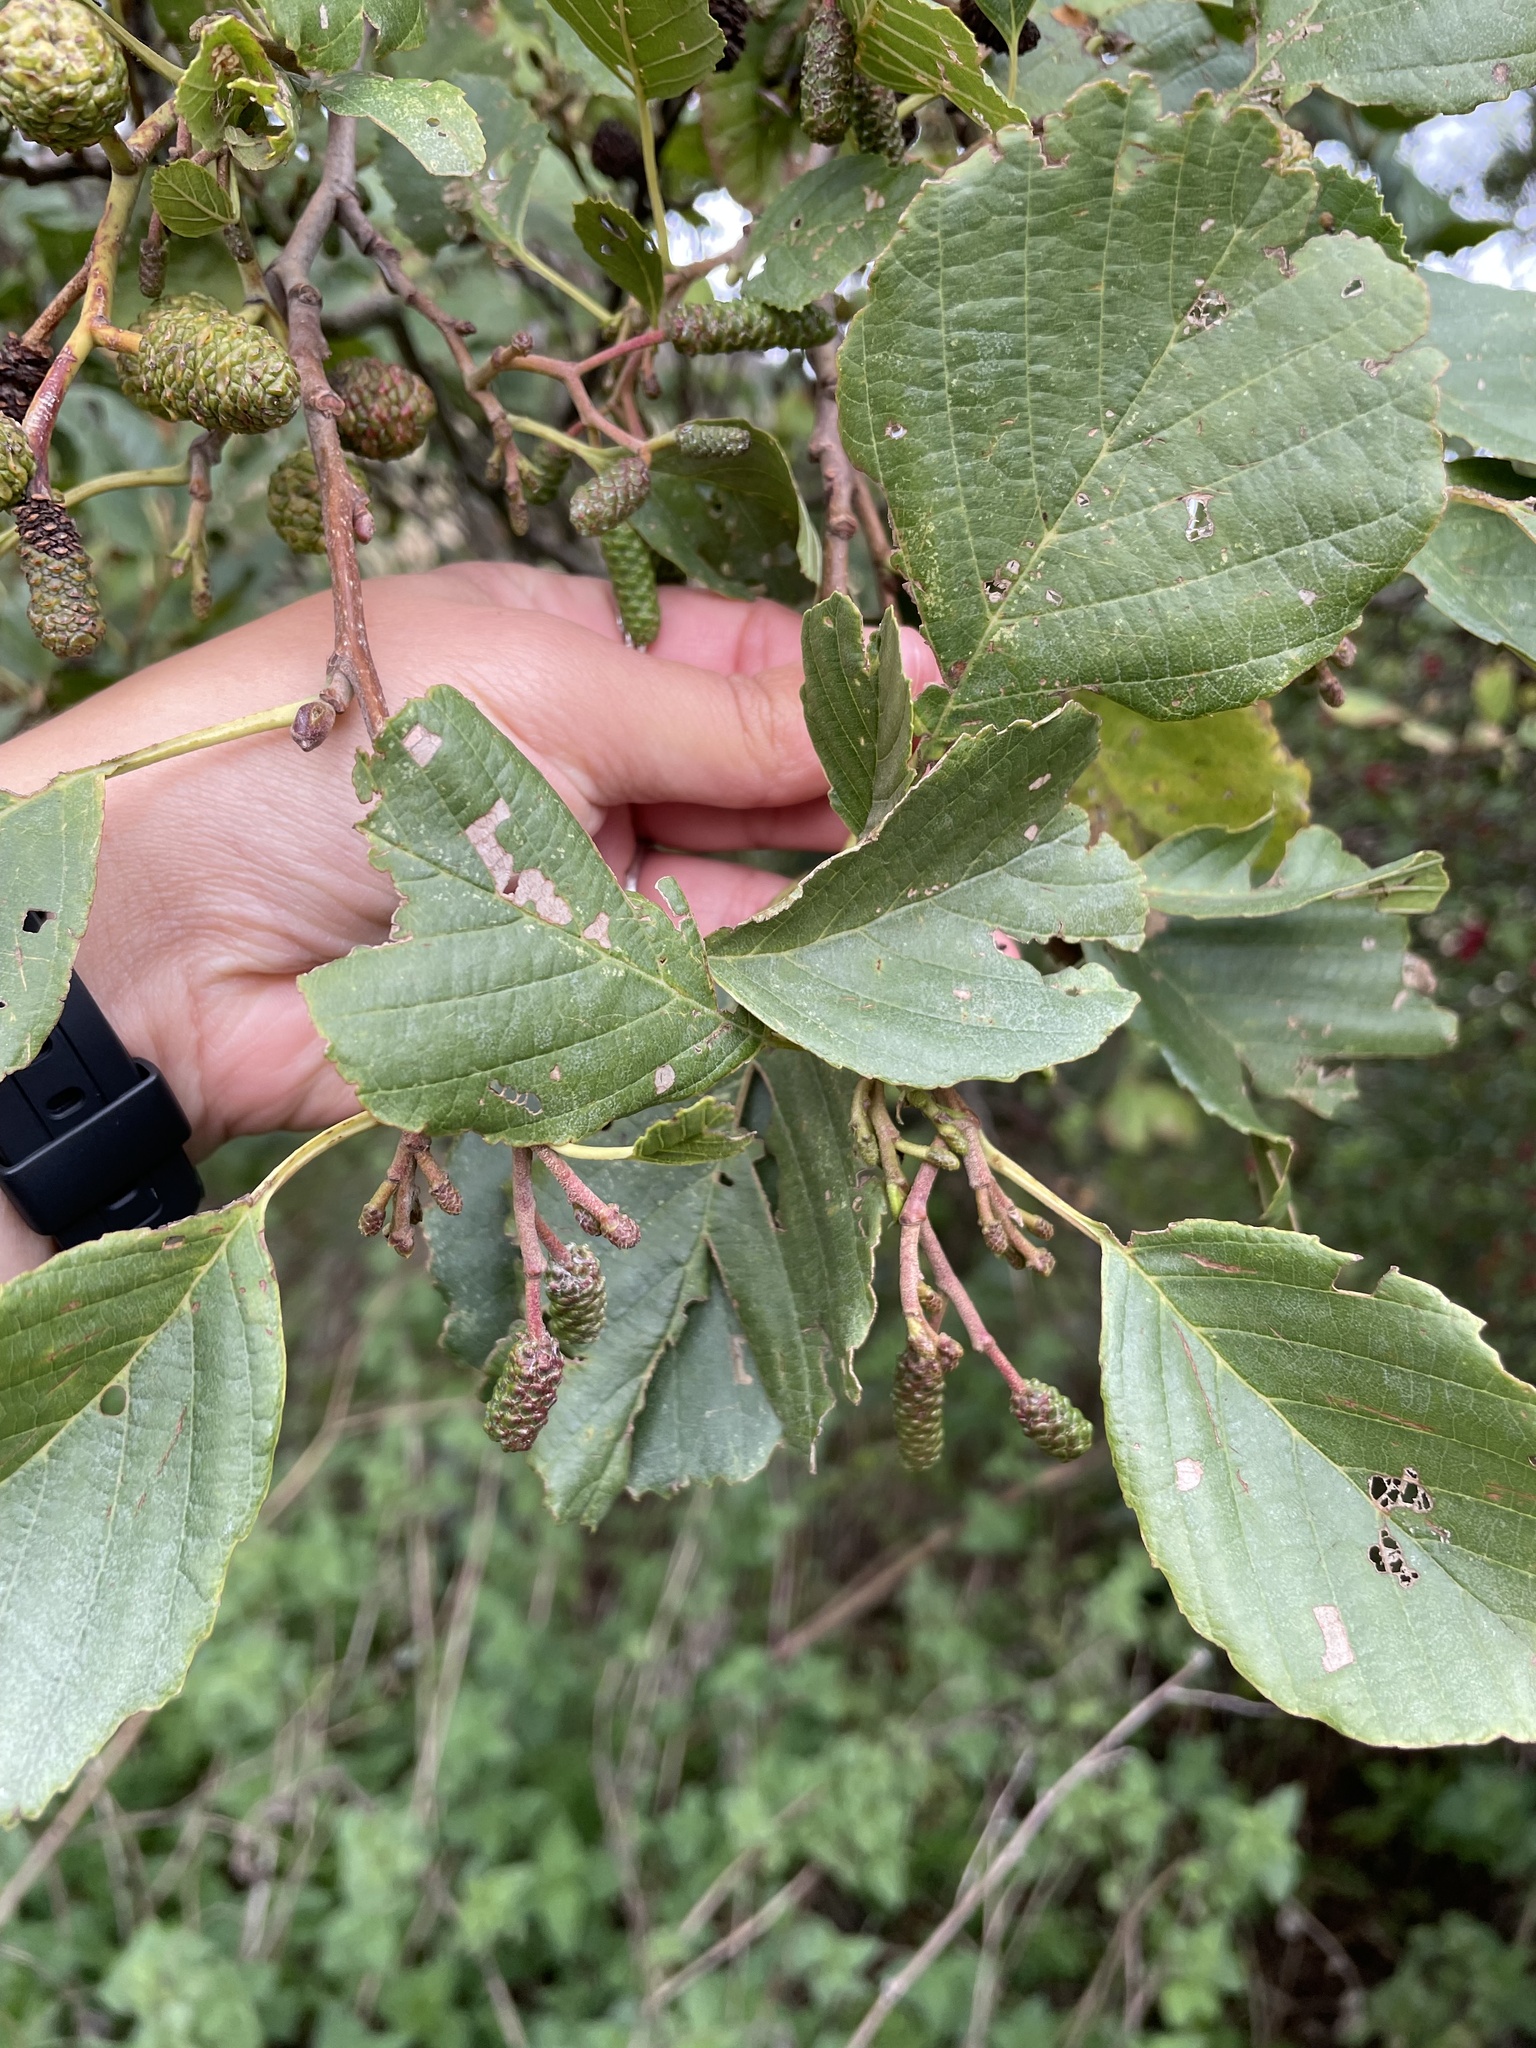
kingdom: Plantae
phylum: Tracheophyta
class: Magnoliopsida
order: Fagales
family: Betulaceae
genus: Alnus
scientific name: Alnus glutinosa
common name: Black alder
